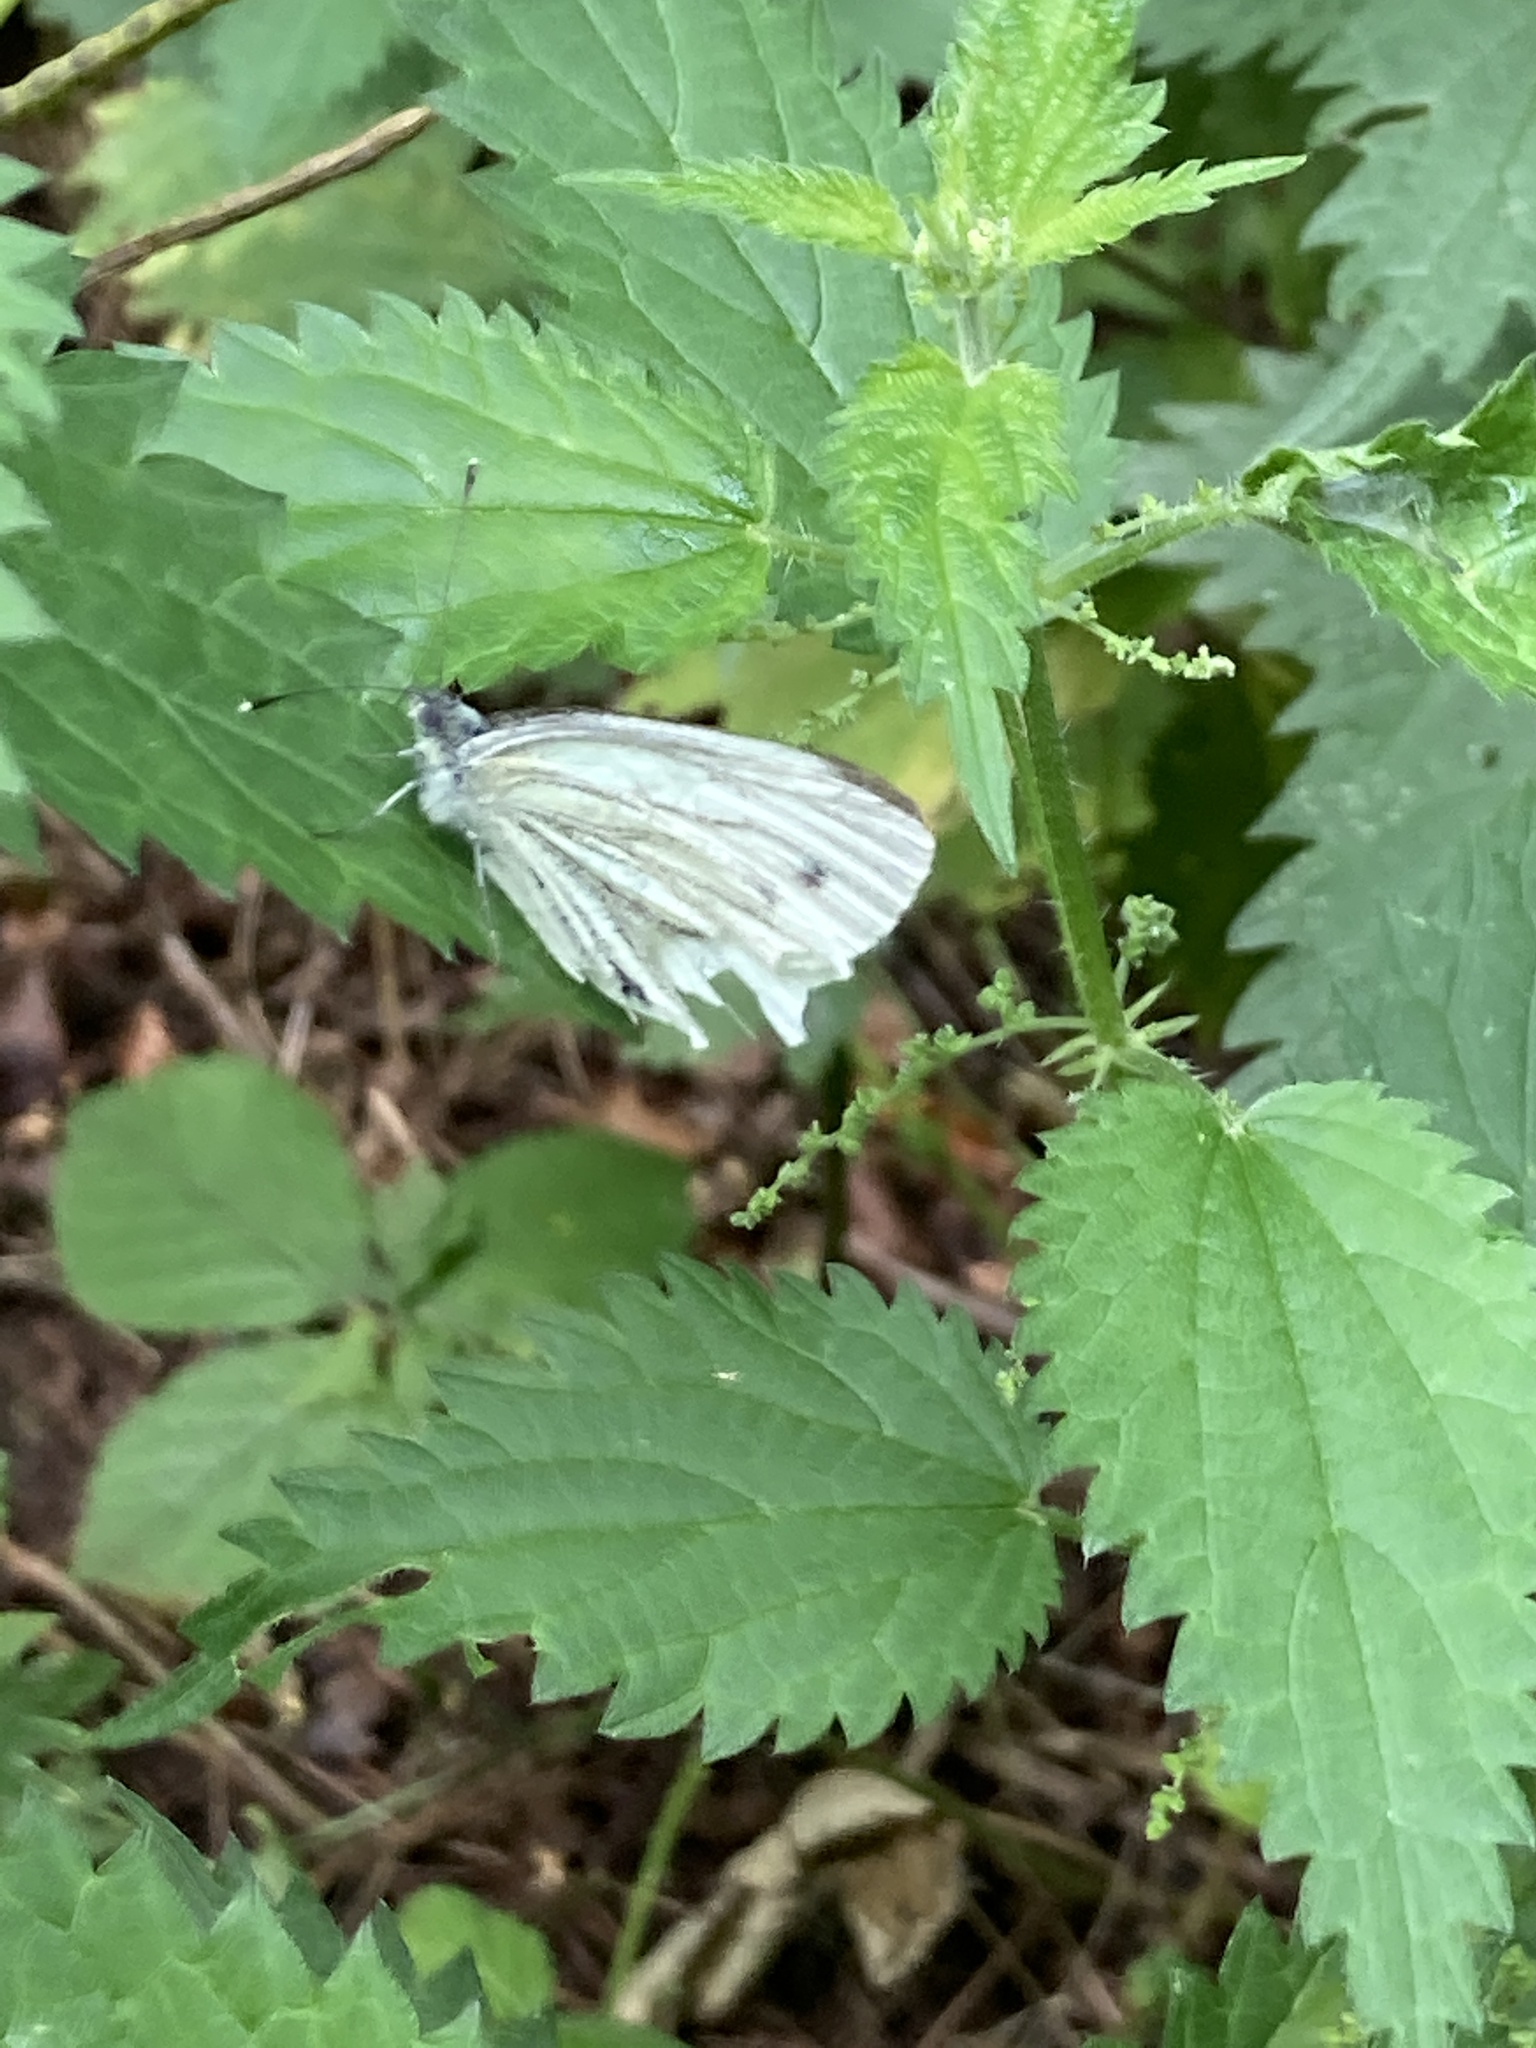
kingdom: Animalia
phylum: Arthropoda
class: Insecta
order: Lepidoptera
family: Pieridae
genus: Pieris
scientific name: Pieris napi
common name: Green-veined white
